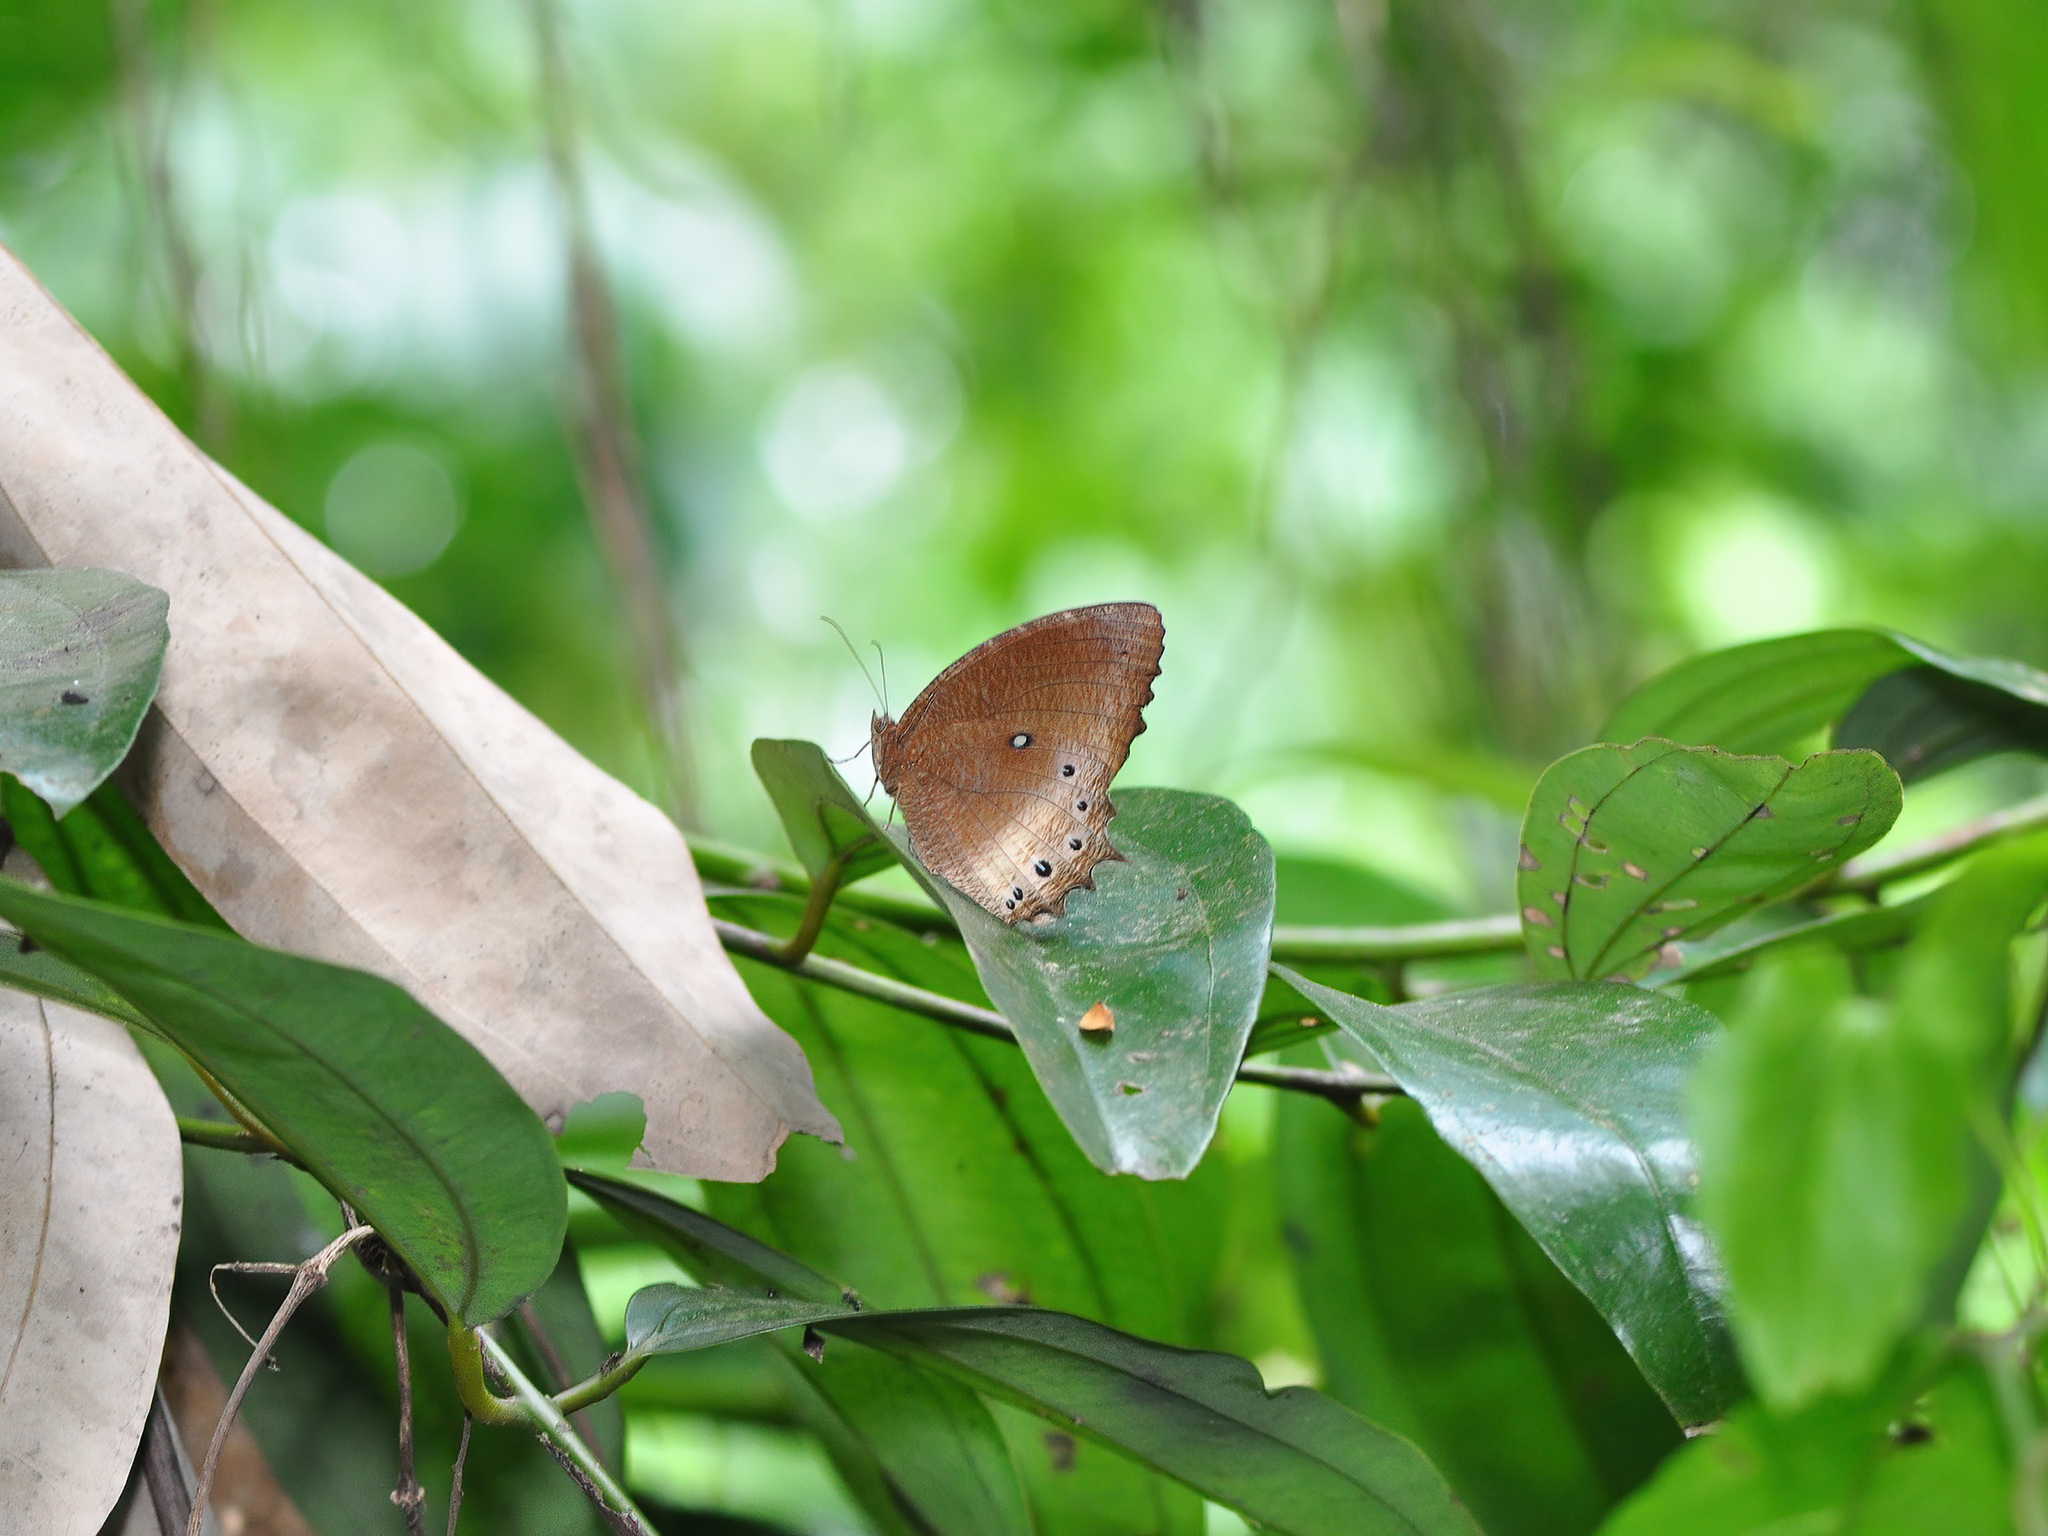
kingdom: Animalia
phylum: Arthropoda
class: Insecta
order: Lepidoptera
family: Nymphalidae
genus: Elymnias
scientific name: Elymnias panthera
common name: Tawny palmfly
